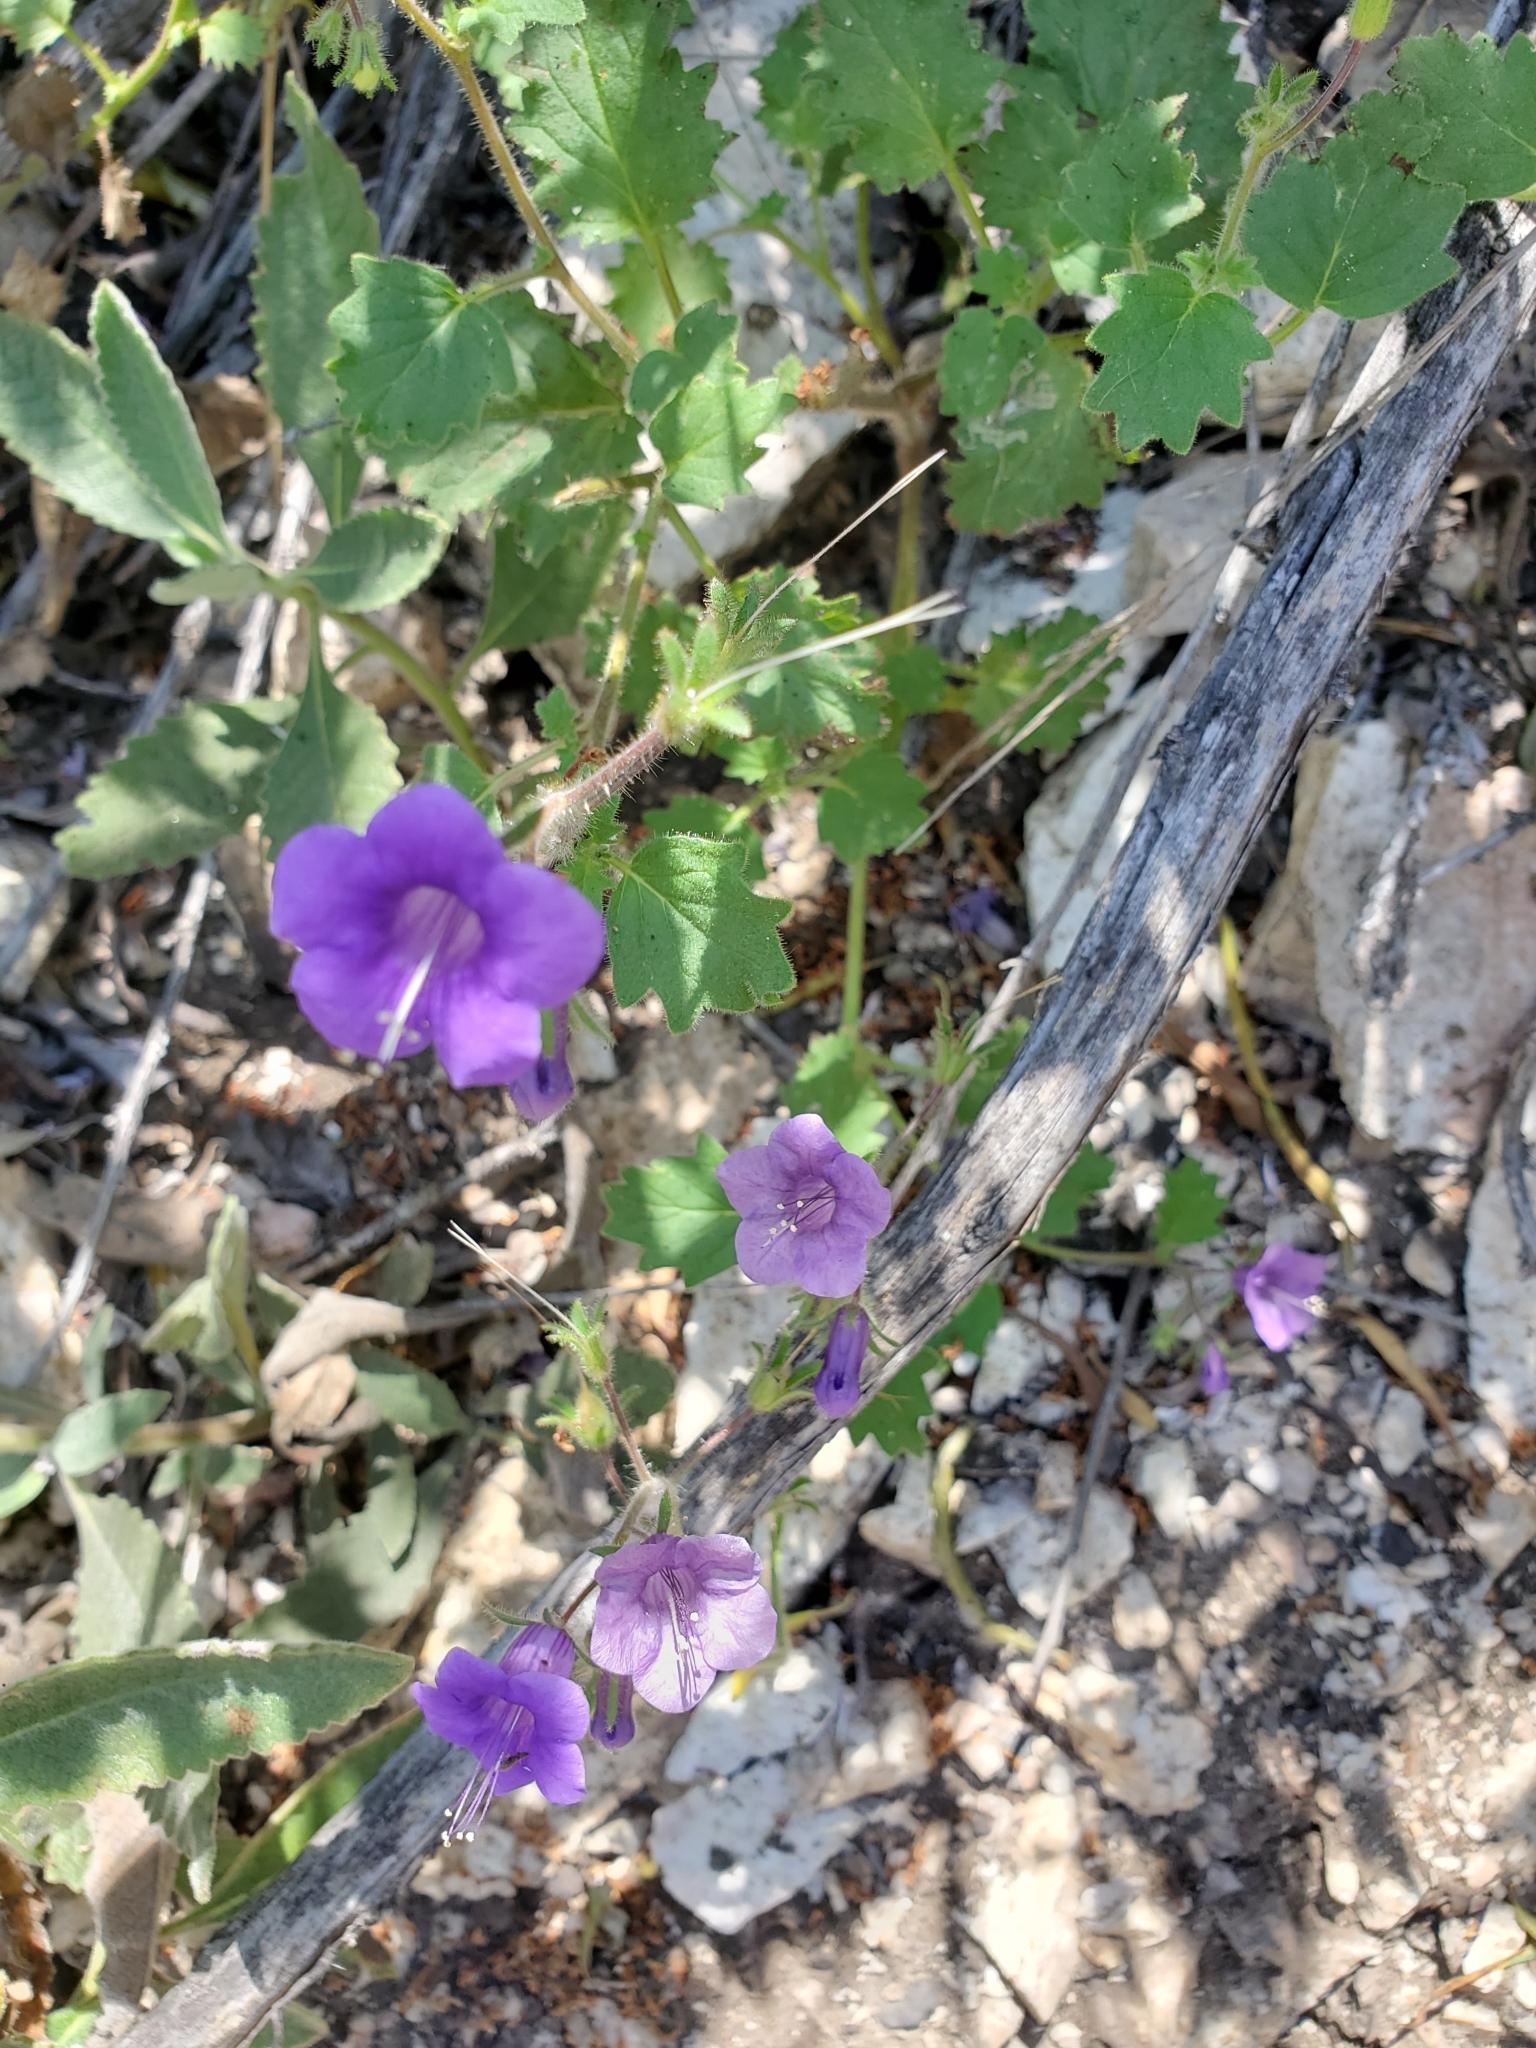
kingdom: Plantae
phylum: Tracheophyta
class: Magnoliopsida
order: Boraginales
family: Hydrophyllaceae
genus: Phacelia
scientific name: Phacelia minor
